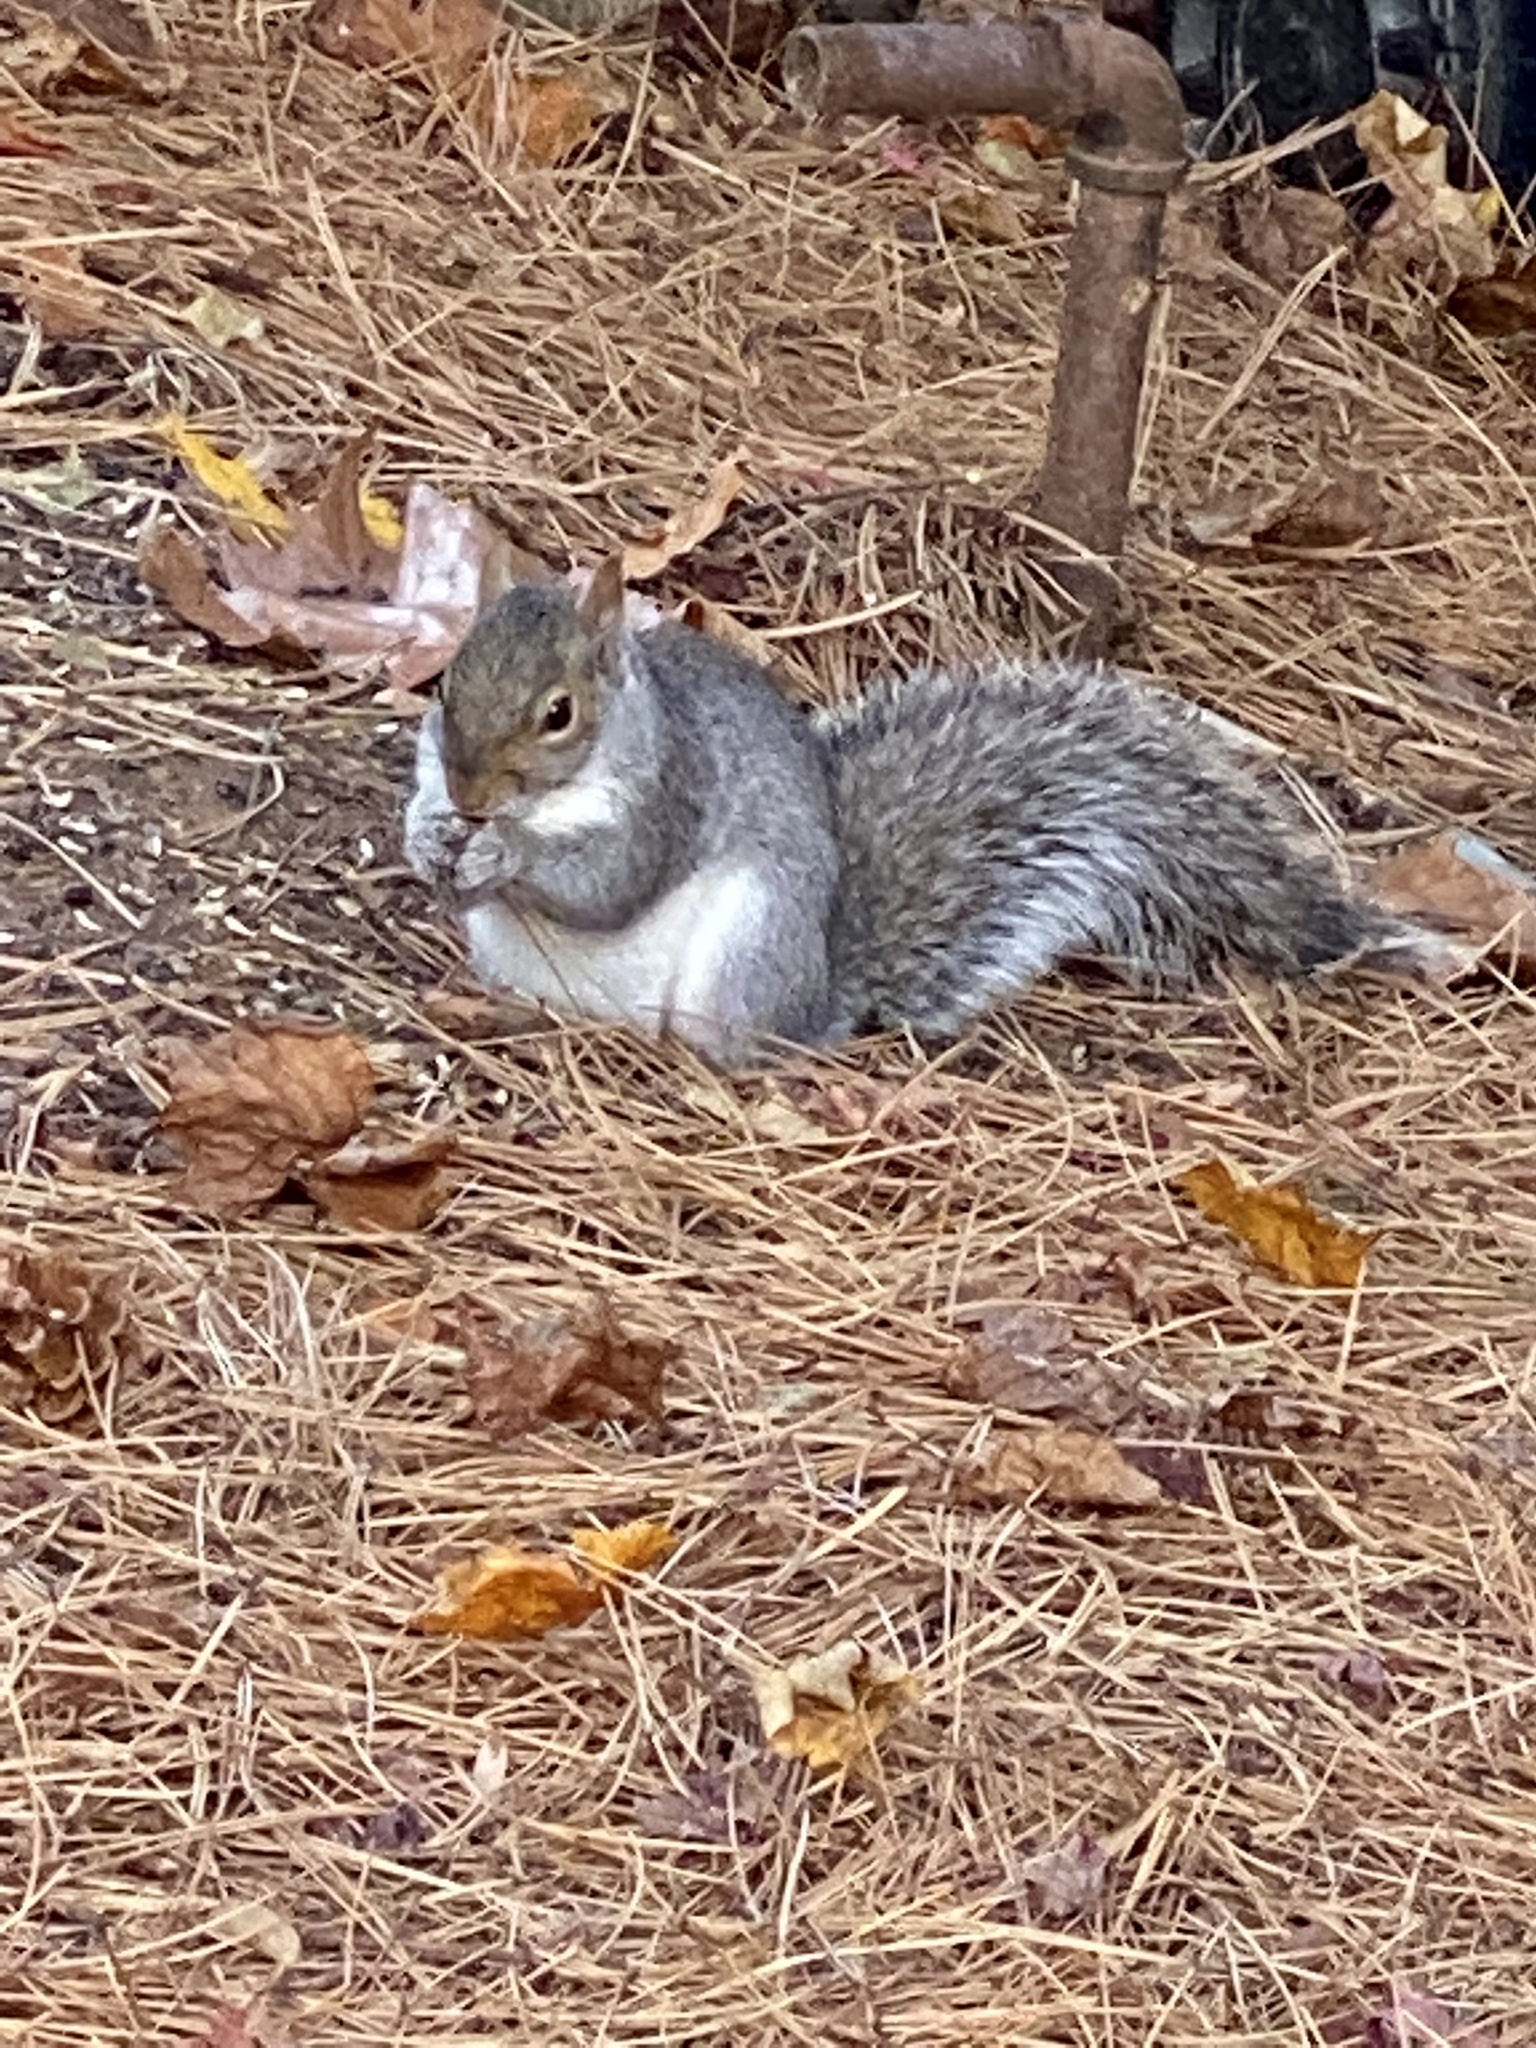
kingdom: Animalia
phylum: Chordata
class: Mammalia
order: Rodentia
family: Sciuridae
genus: Sciurus
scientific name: Sciurus carolinensis
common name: Eastern gray squirrel
